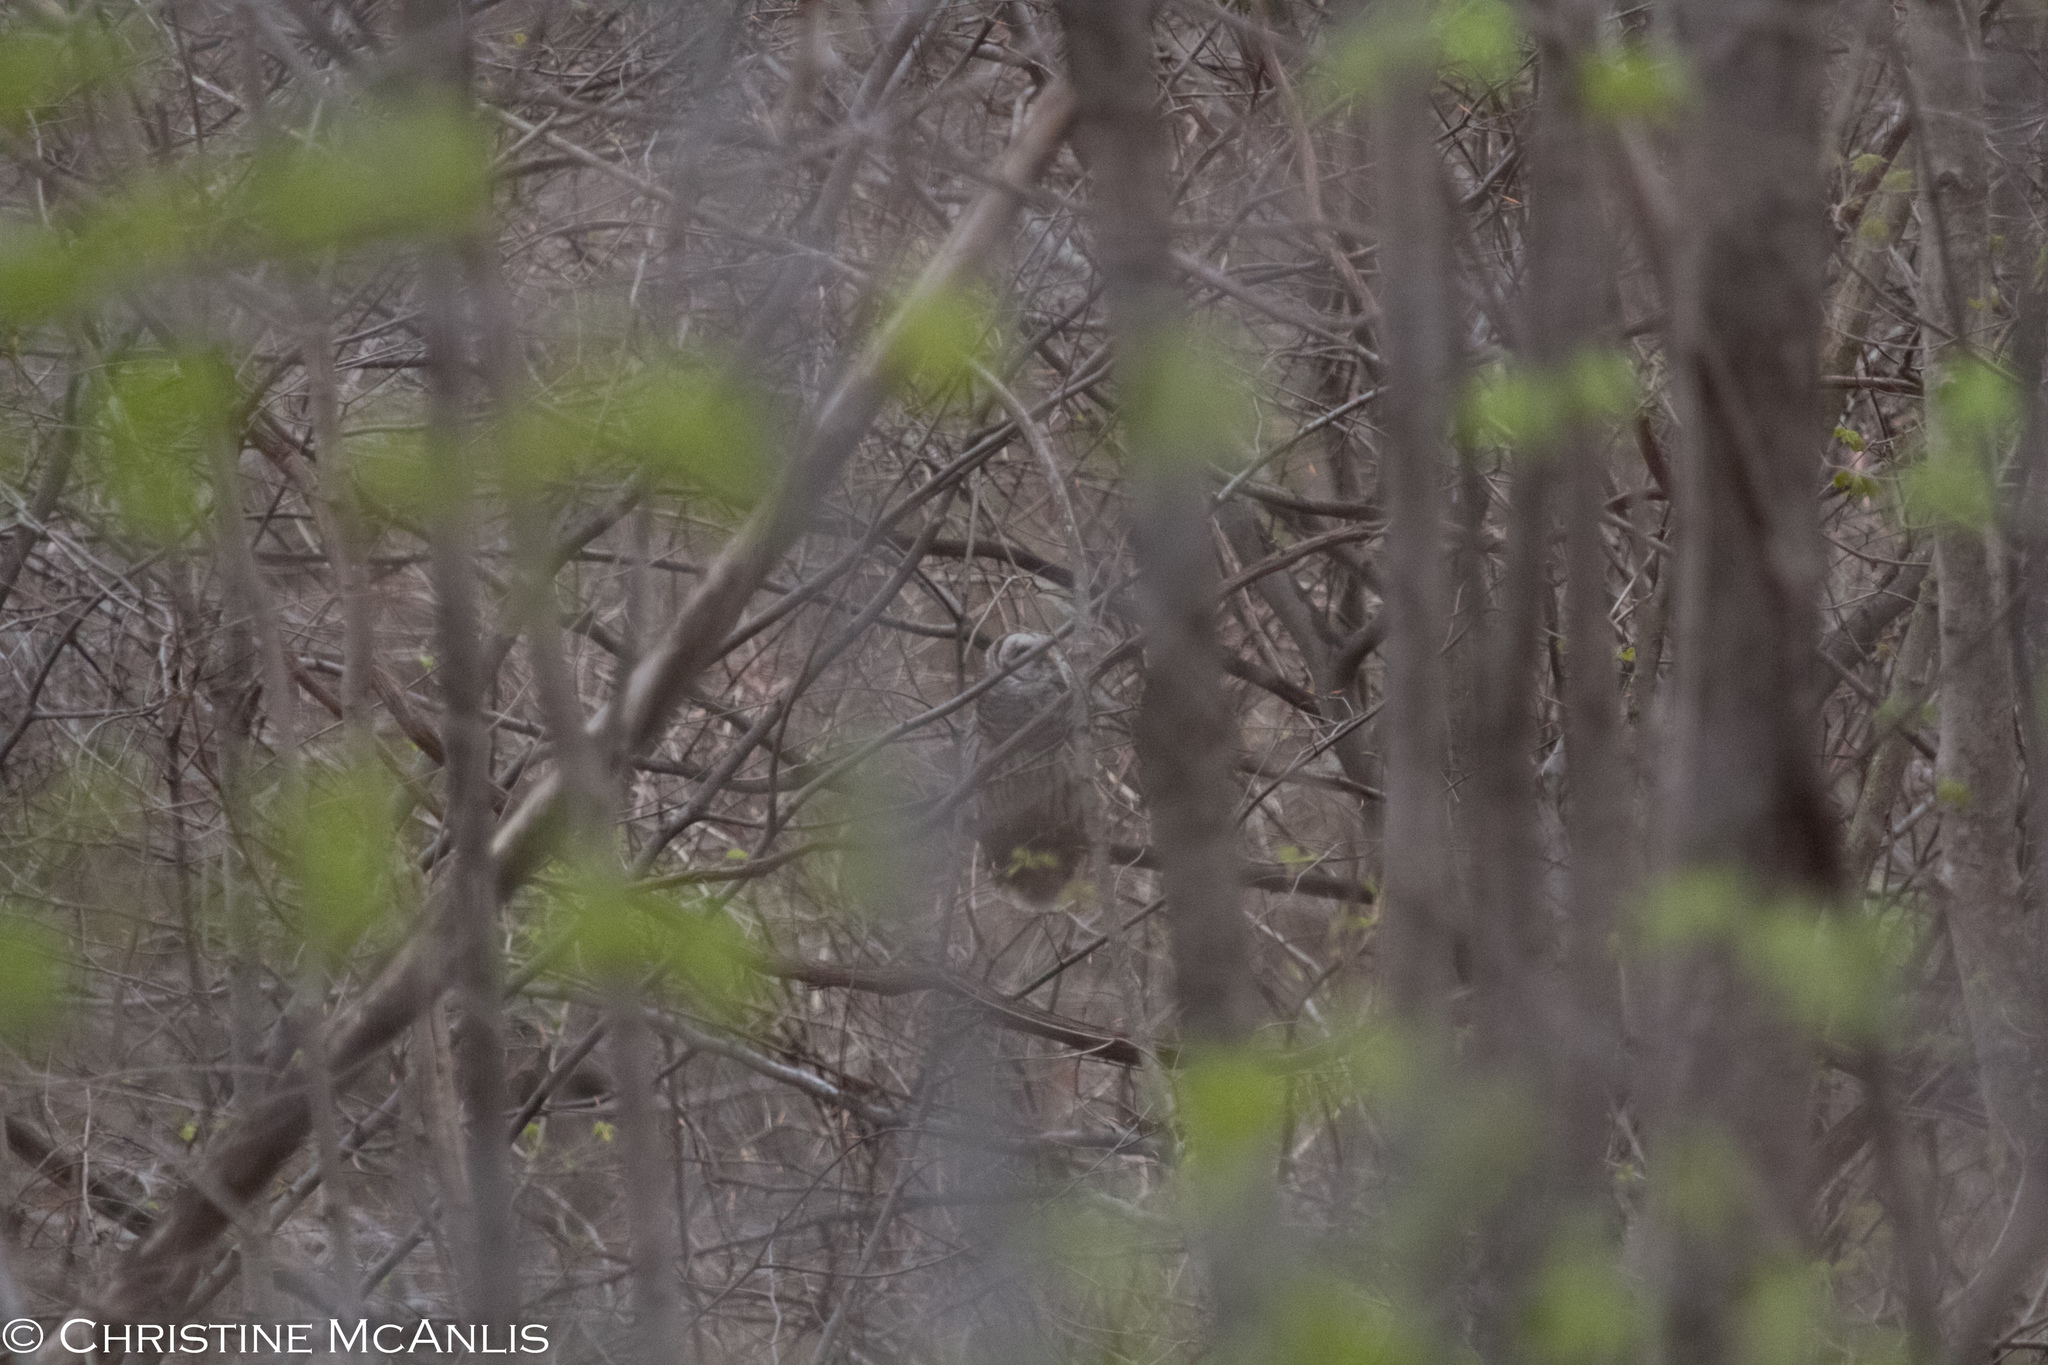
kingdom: Animalia
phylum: Chordata
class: Aves
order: Strigiformes
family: Strigidae
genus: Strix
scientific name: Strix varia
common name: Barred owl
